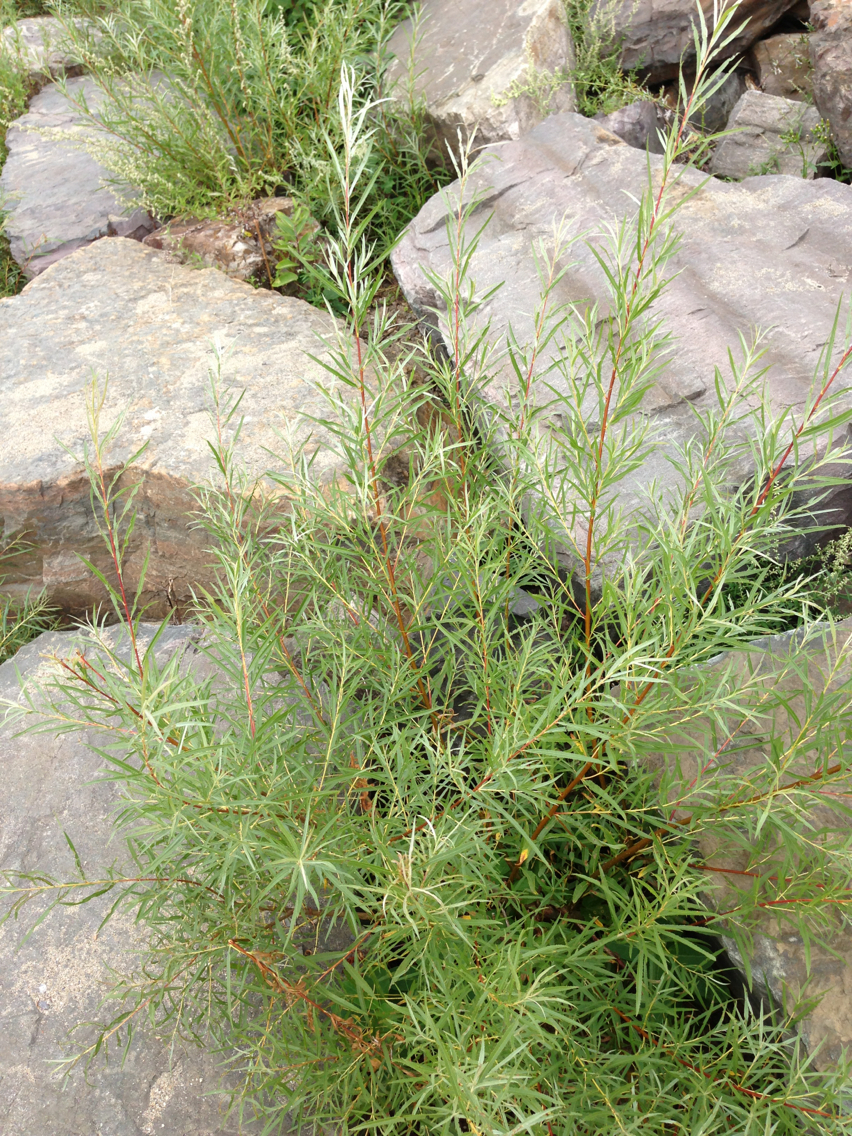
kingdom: Plantae
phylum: Tracheophyta
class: Magnoliopsida
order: Malpighiales
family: Salicaceae
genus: Salix
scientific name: Salix interior
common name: Sandbar willow
